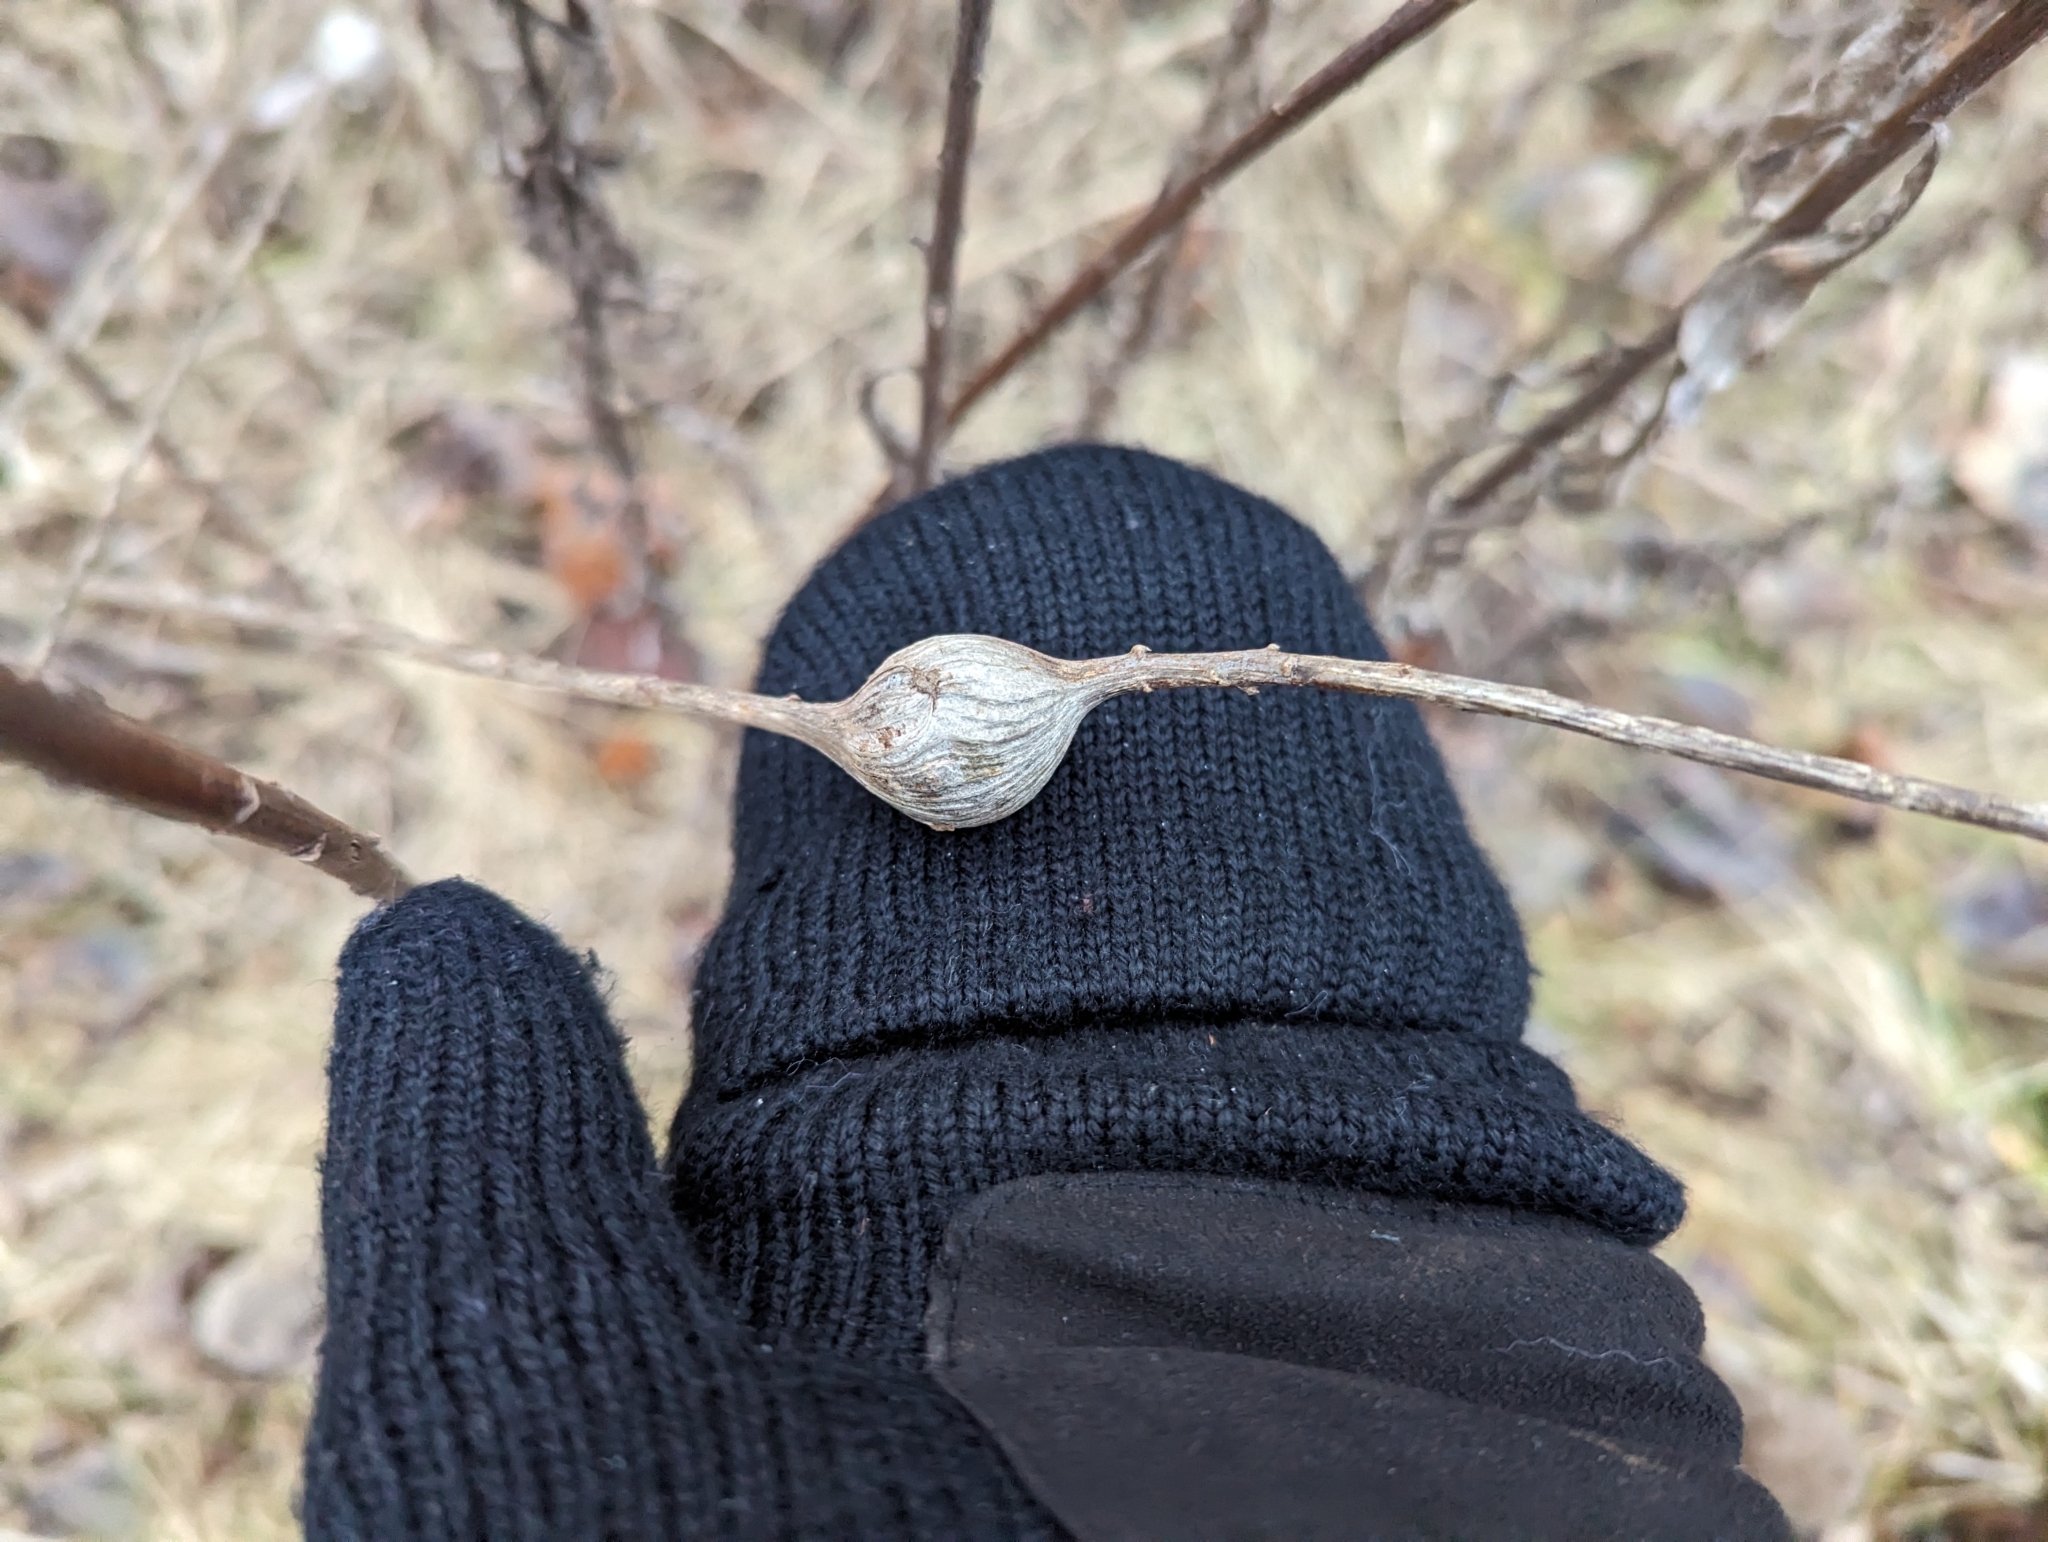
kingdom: Animalia
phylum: Arthropoda
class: Insecta
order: Diptera
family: Tephritidae
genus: Eurosta
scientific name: Eurosta solidaginis
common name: Goldenrod gall fly
